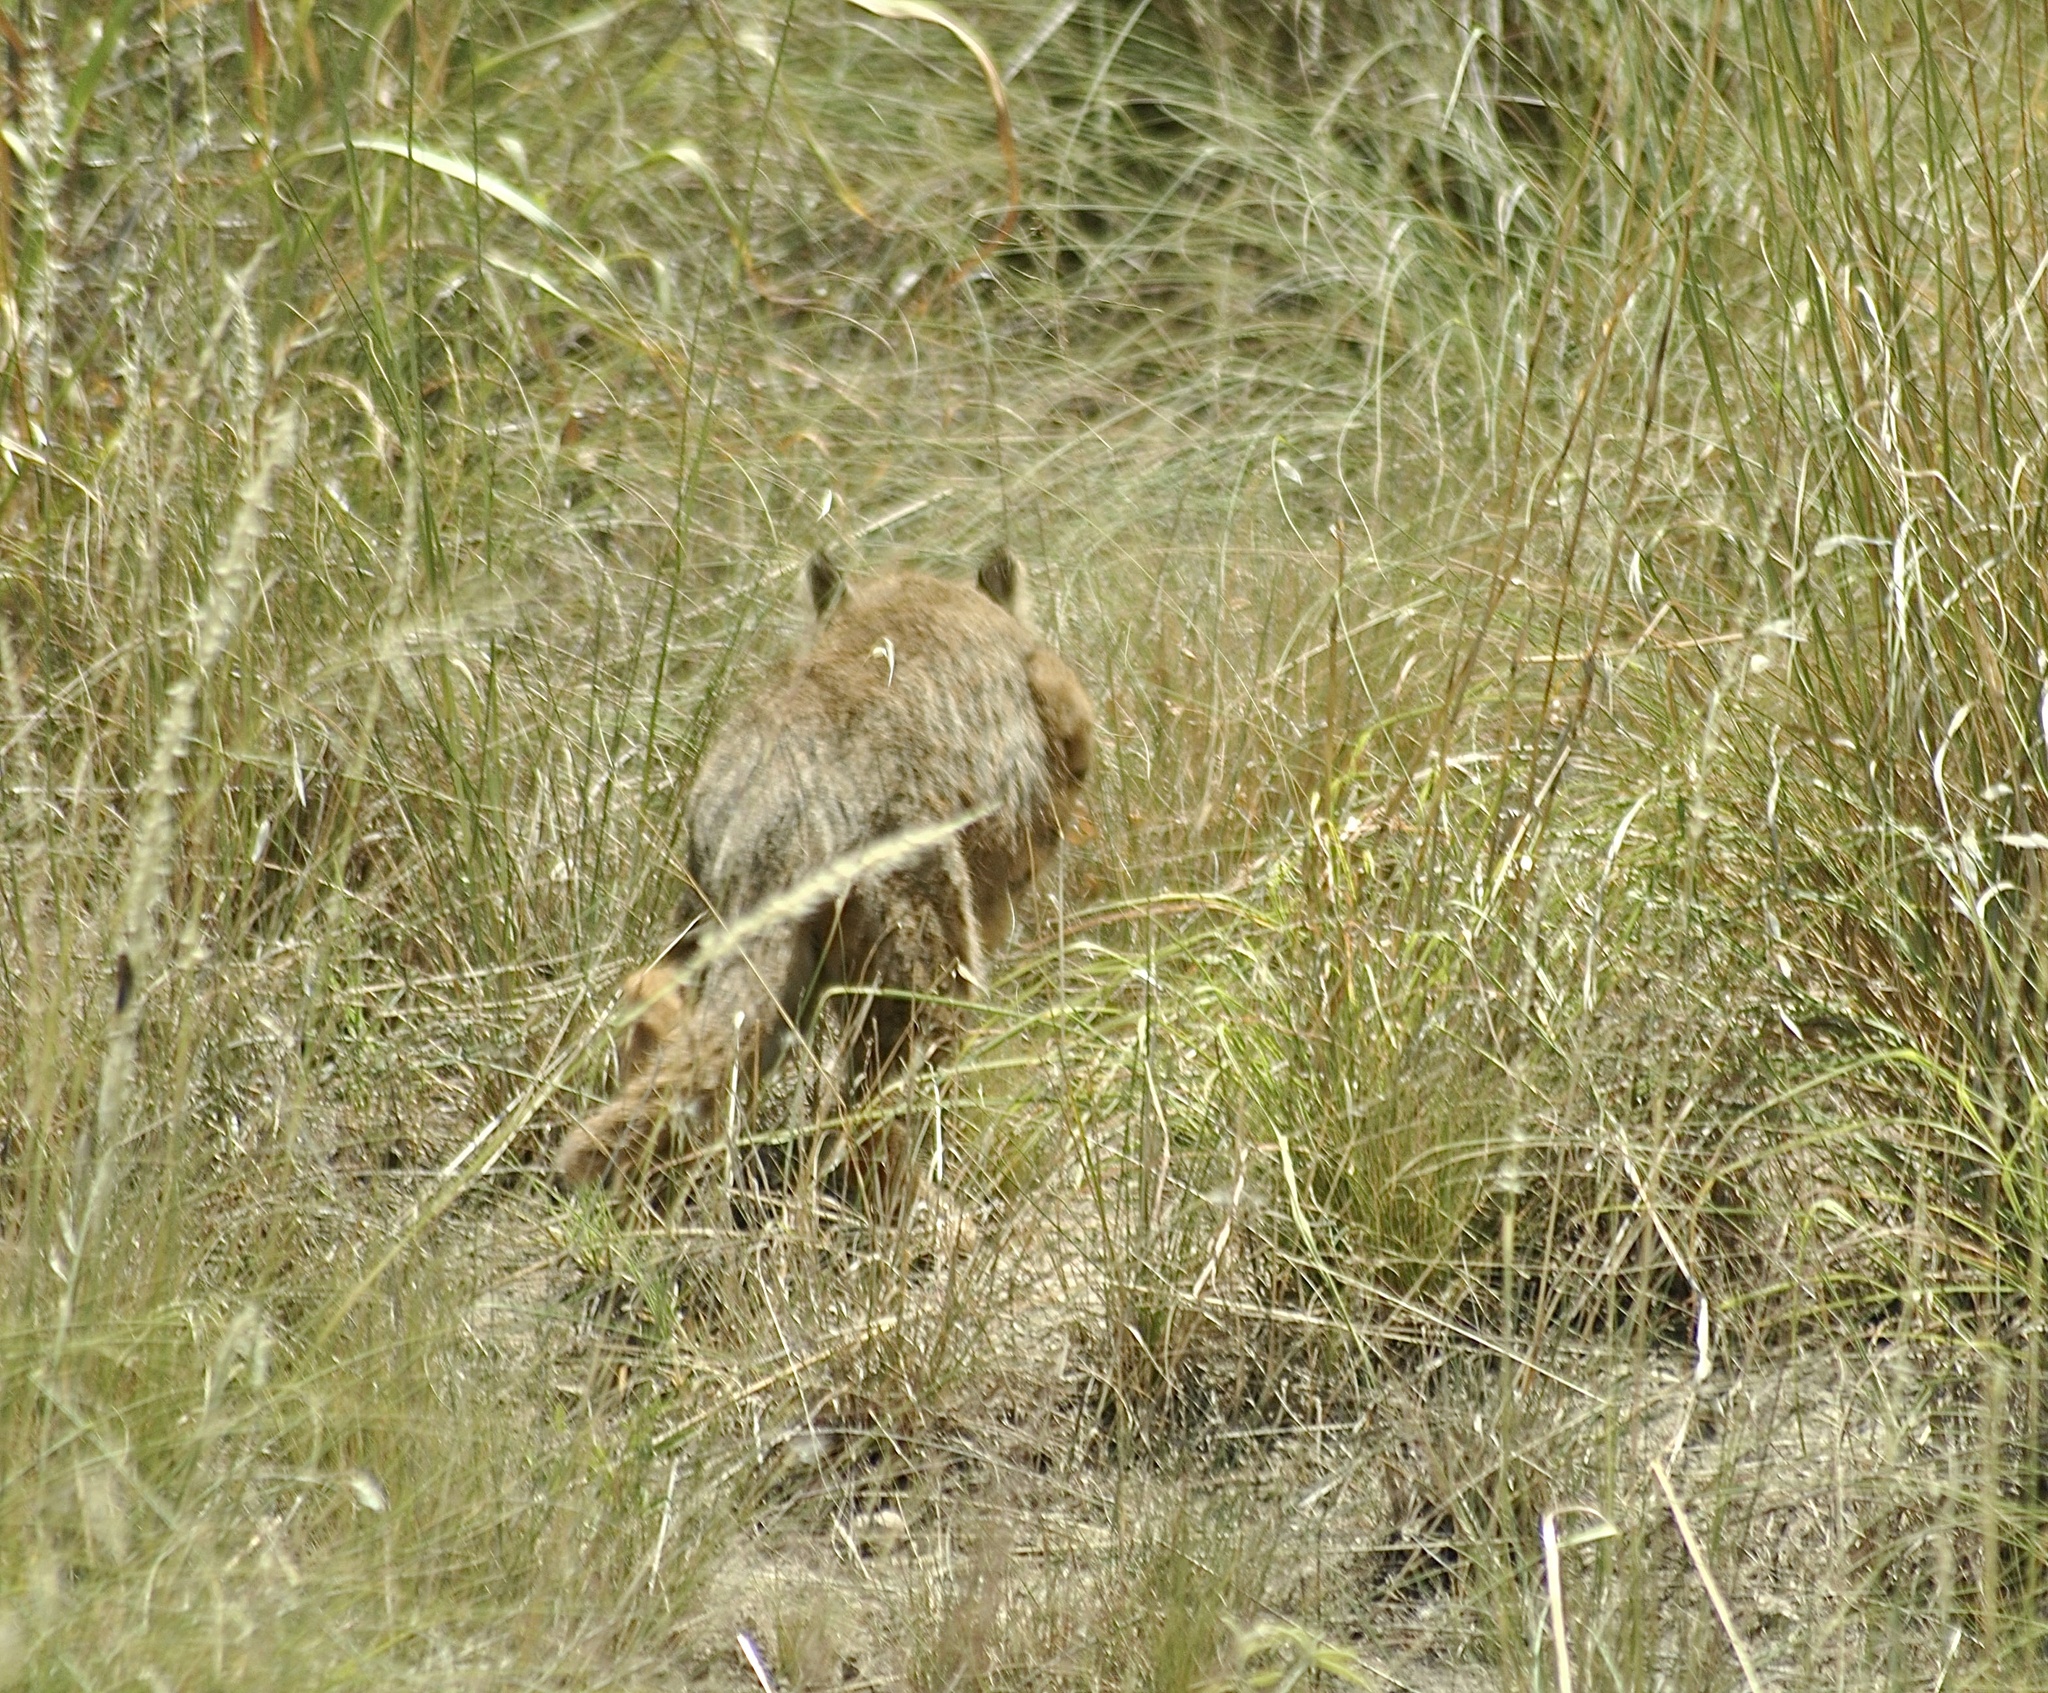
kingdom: Animalia
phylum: Chordata
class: Mammalia
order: Carnivora
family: Felidae
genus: Leopardus
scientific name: Leopardus pajeros
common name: Pampas cat
